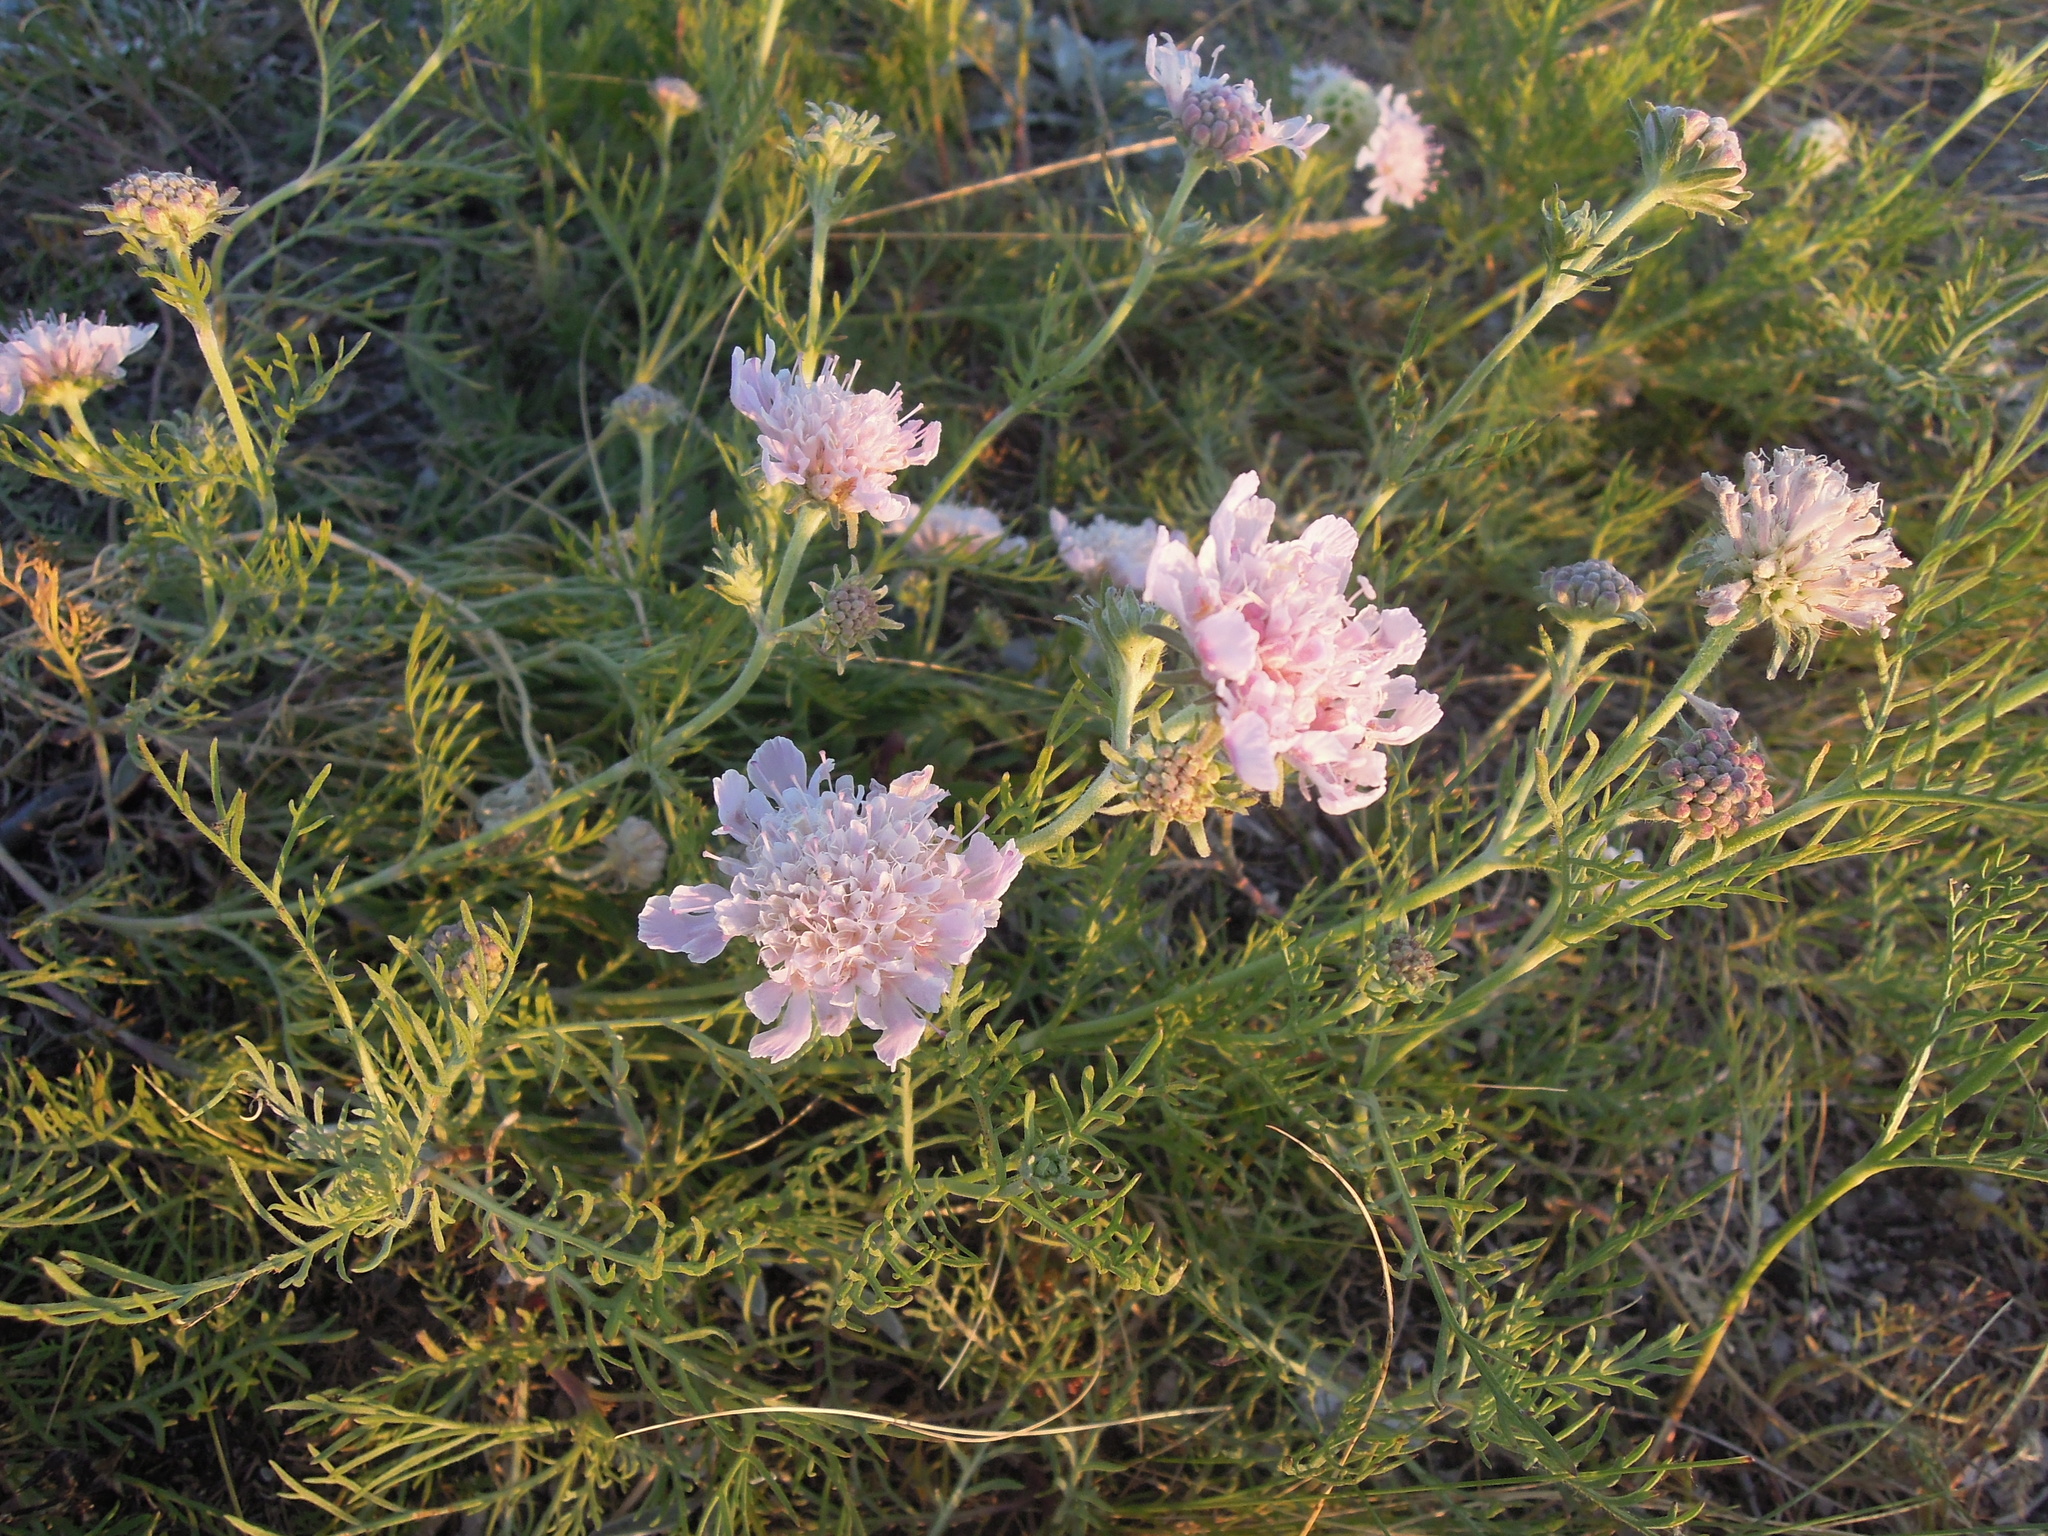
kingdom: Plantae
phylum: Tracheophyta
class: Magnoliopsida
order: Dipsacales
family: Caprifoliaceae
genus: Lomelosia
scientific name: Lomelosia isetensis
